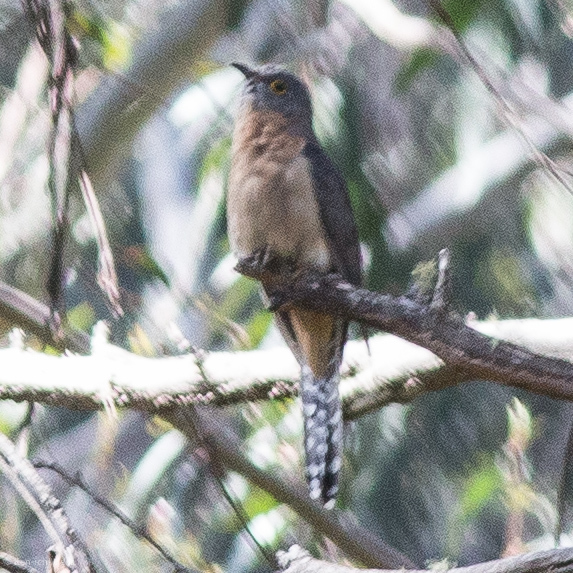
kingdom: Animalia
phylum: Chordata
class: Aves
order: Cuculiformes
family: Cuculidae
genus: Cacomantis
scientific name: Cacomantis flabelliformis
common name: Fan-tailed cuckoo
